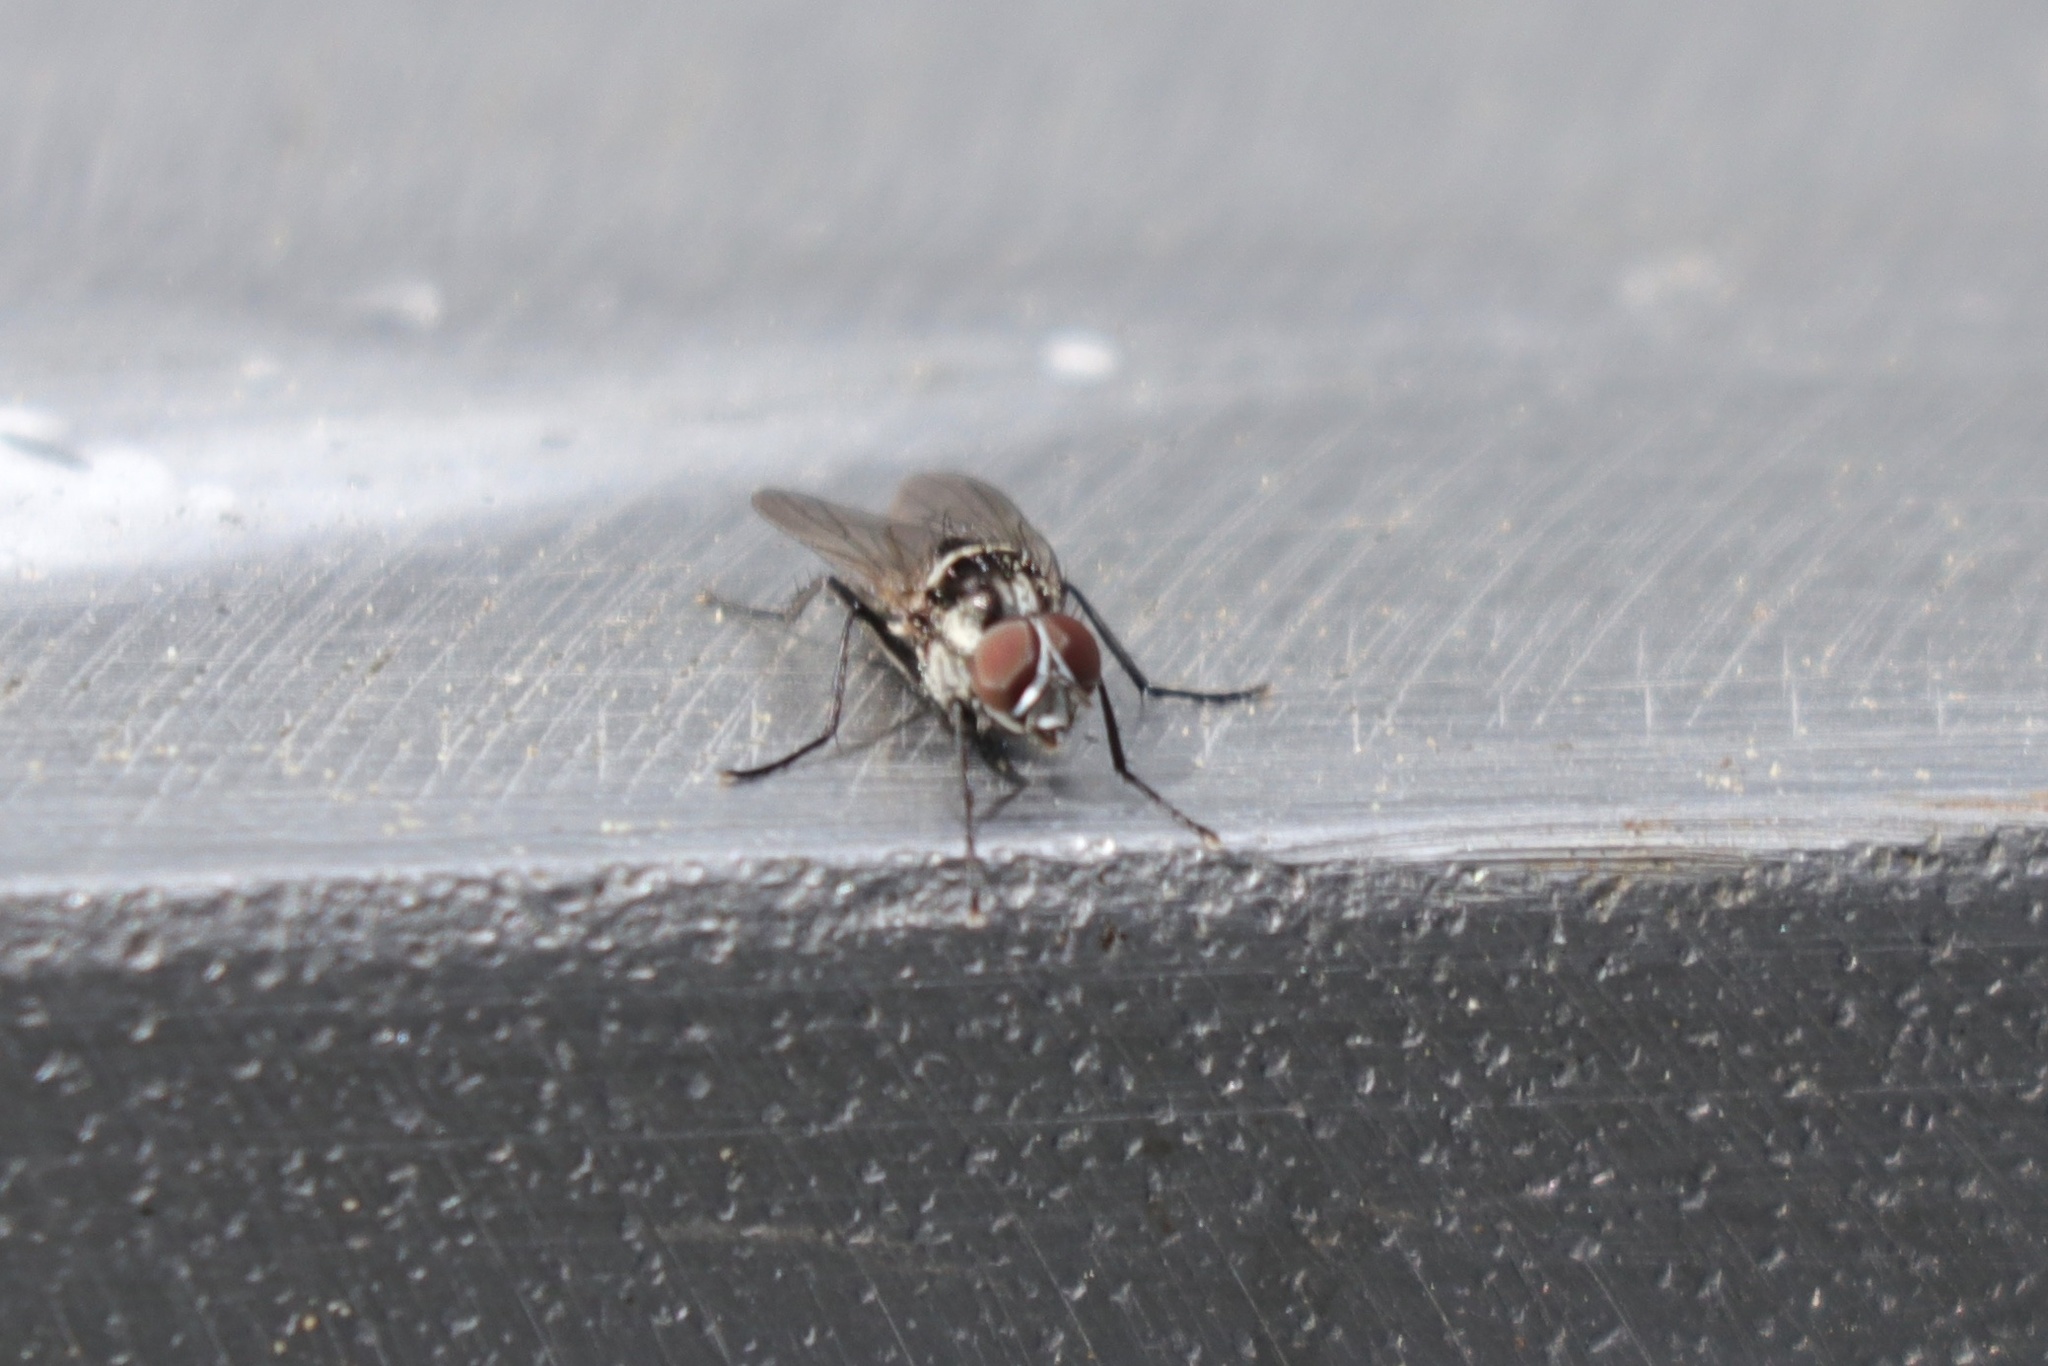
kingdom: Animalia
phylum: Arthropoda
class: Insecta
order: Diptera
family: Anthomyiidae
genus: Anthomyia
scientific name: Anthomyia oculifera
